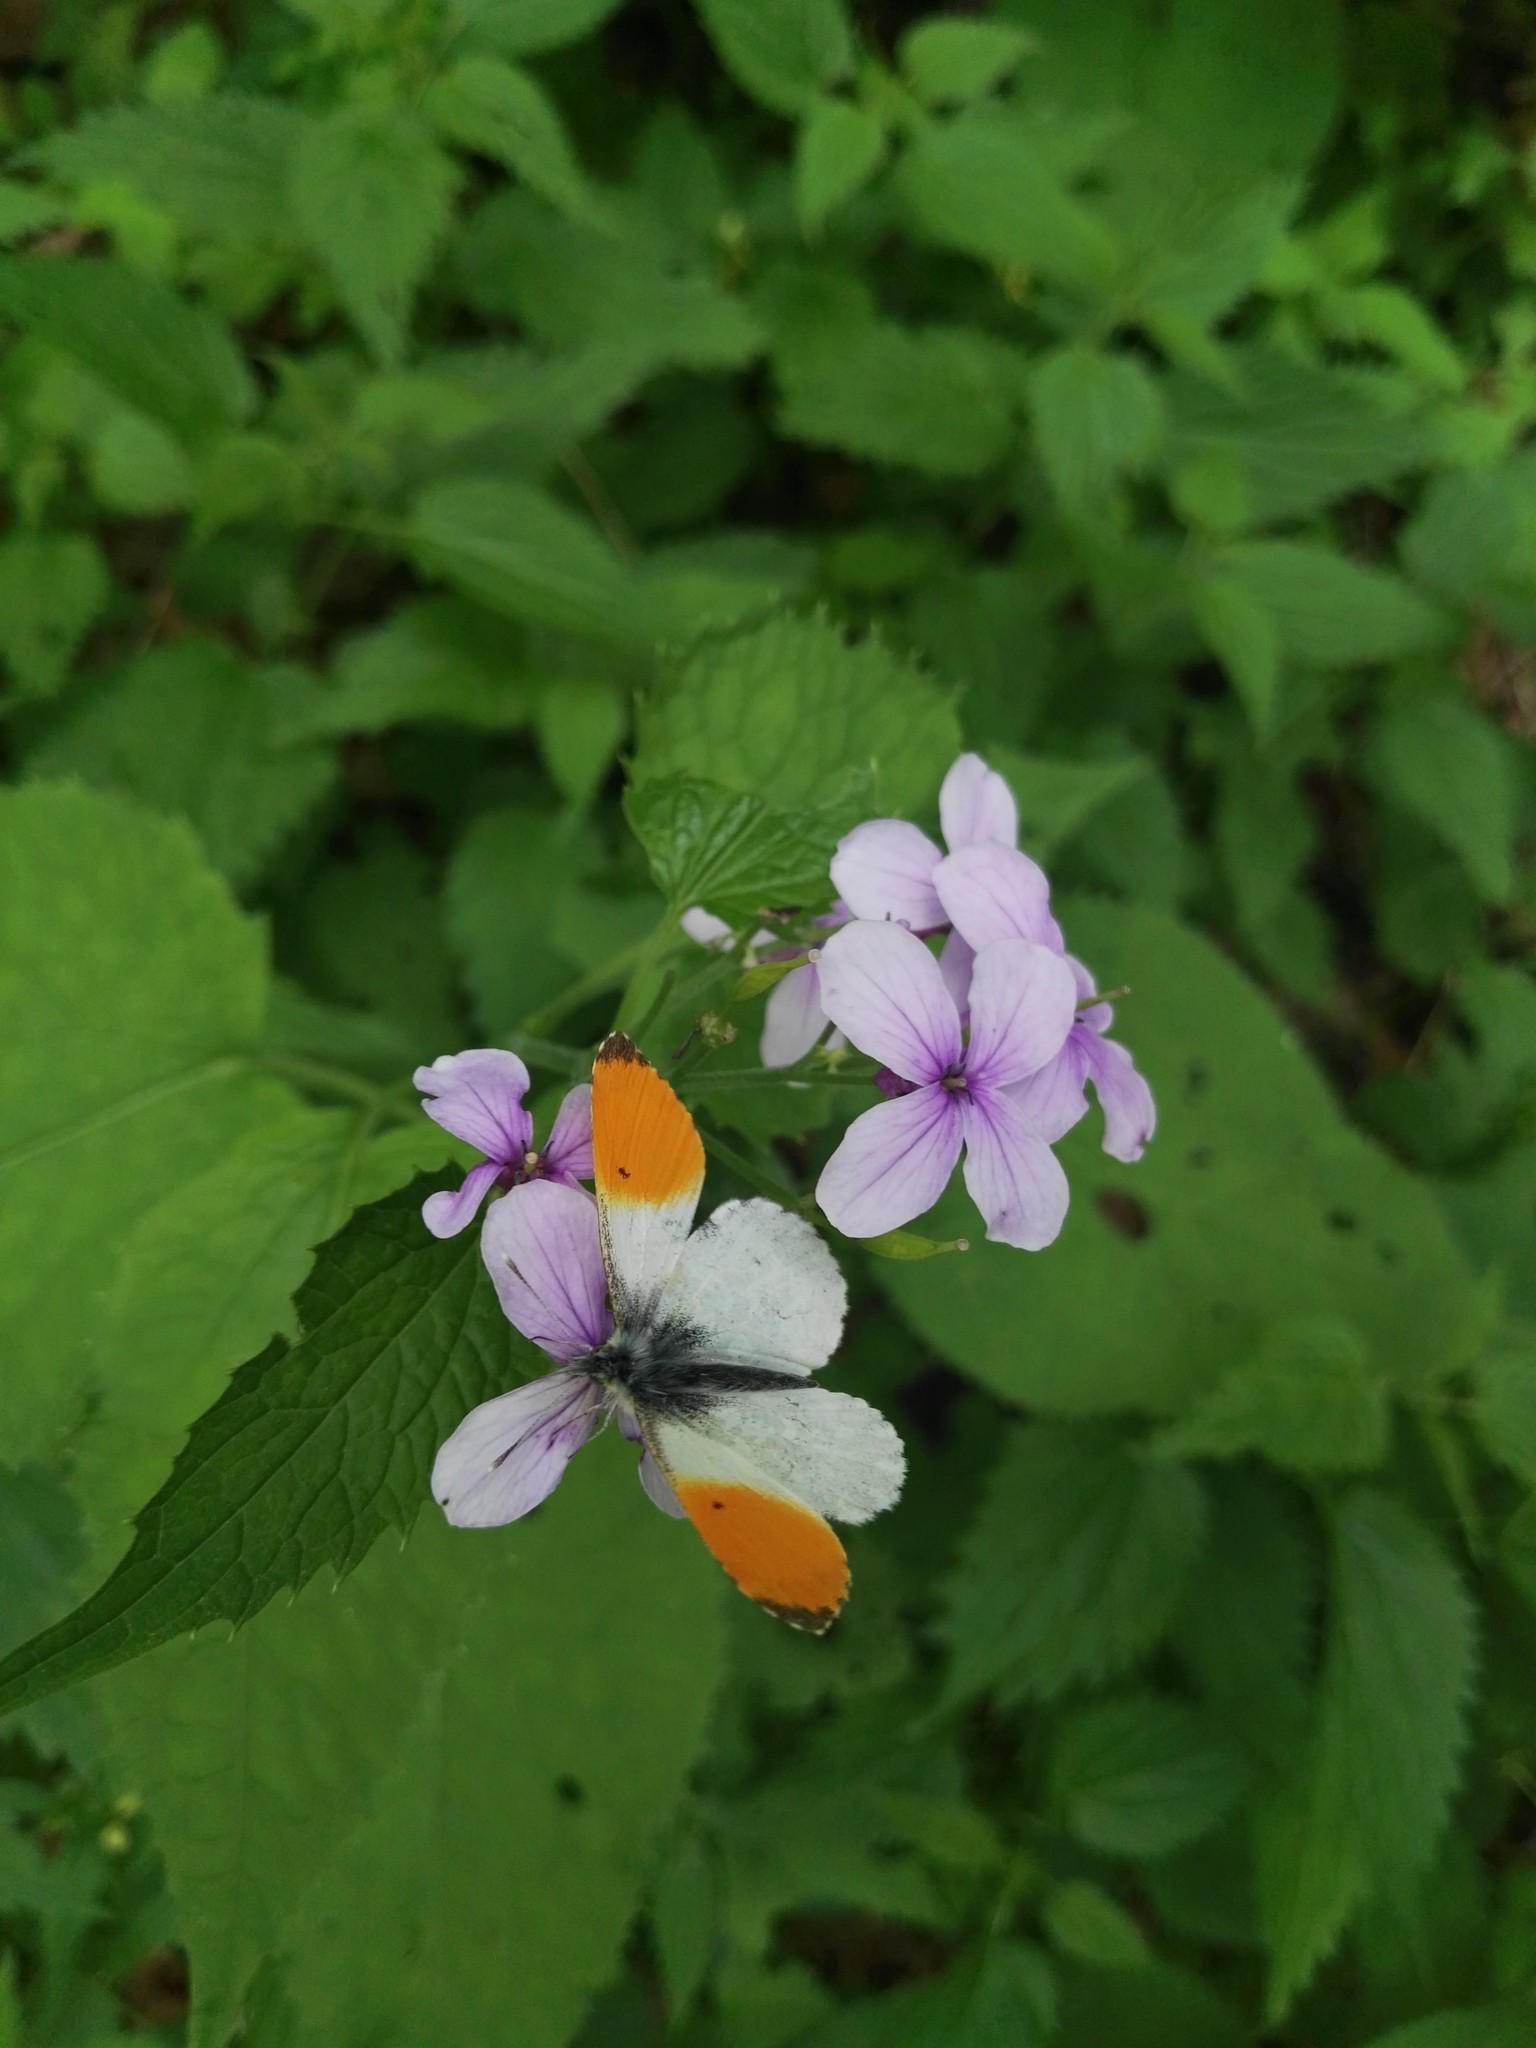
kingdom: Animalia
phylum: Arthropoda
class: Insecta
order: Lepidoptera
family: Pieridae
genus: Anthocharis
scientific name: Anthocharis cardamines
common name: Orange-tip
